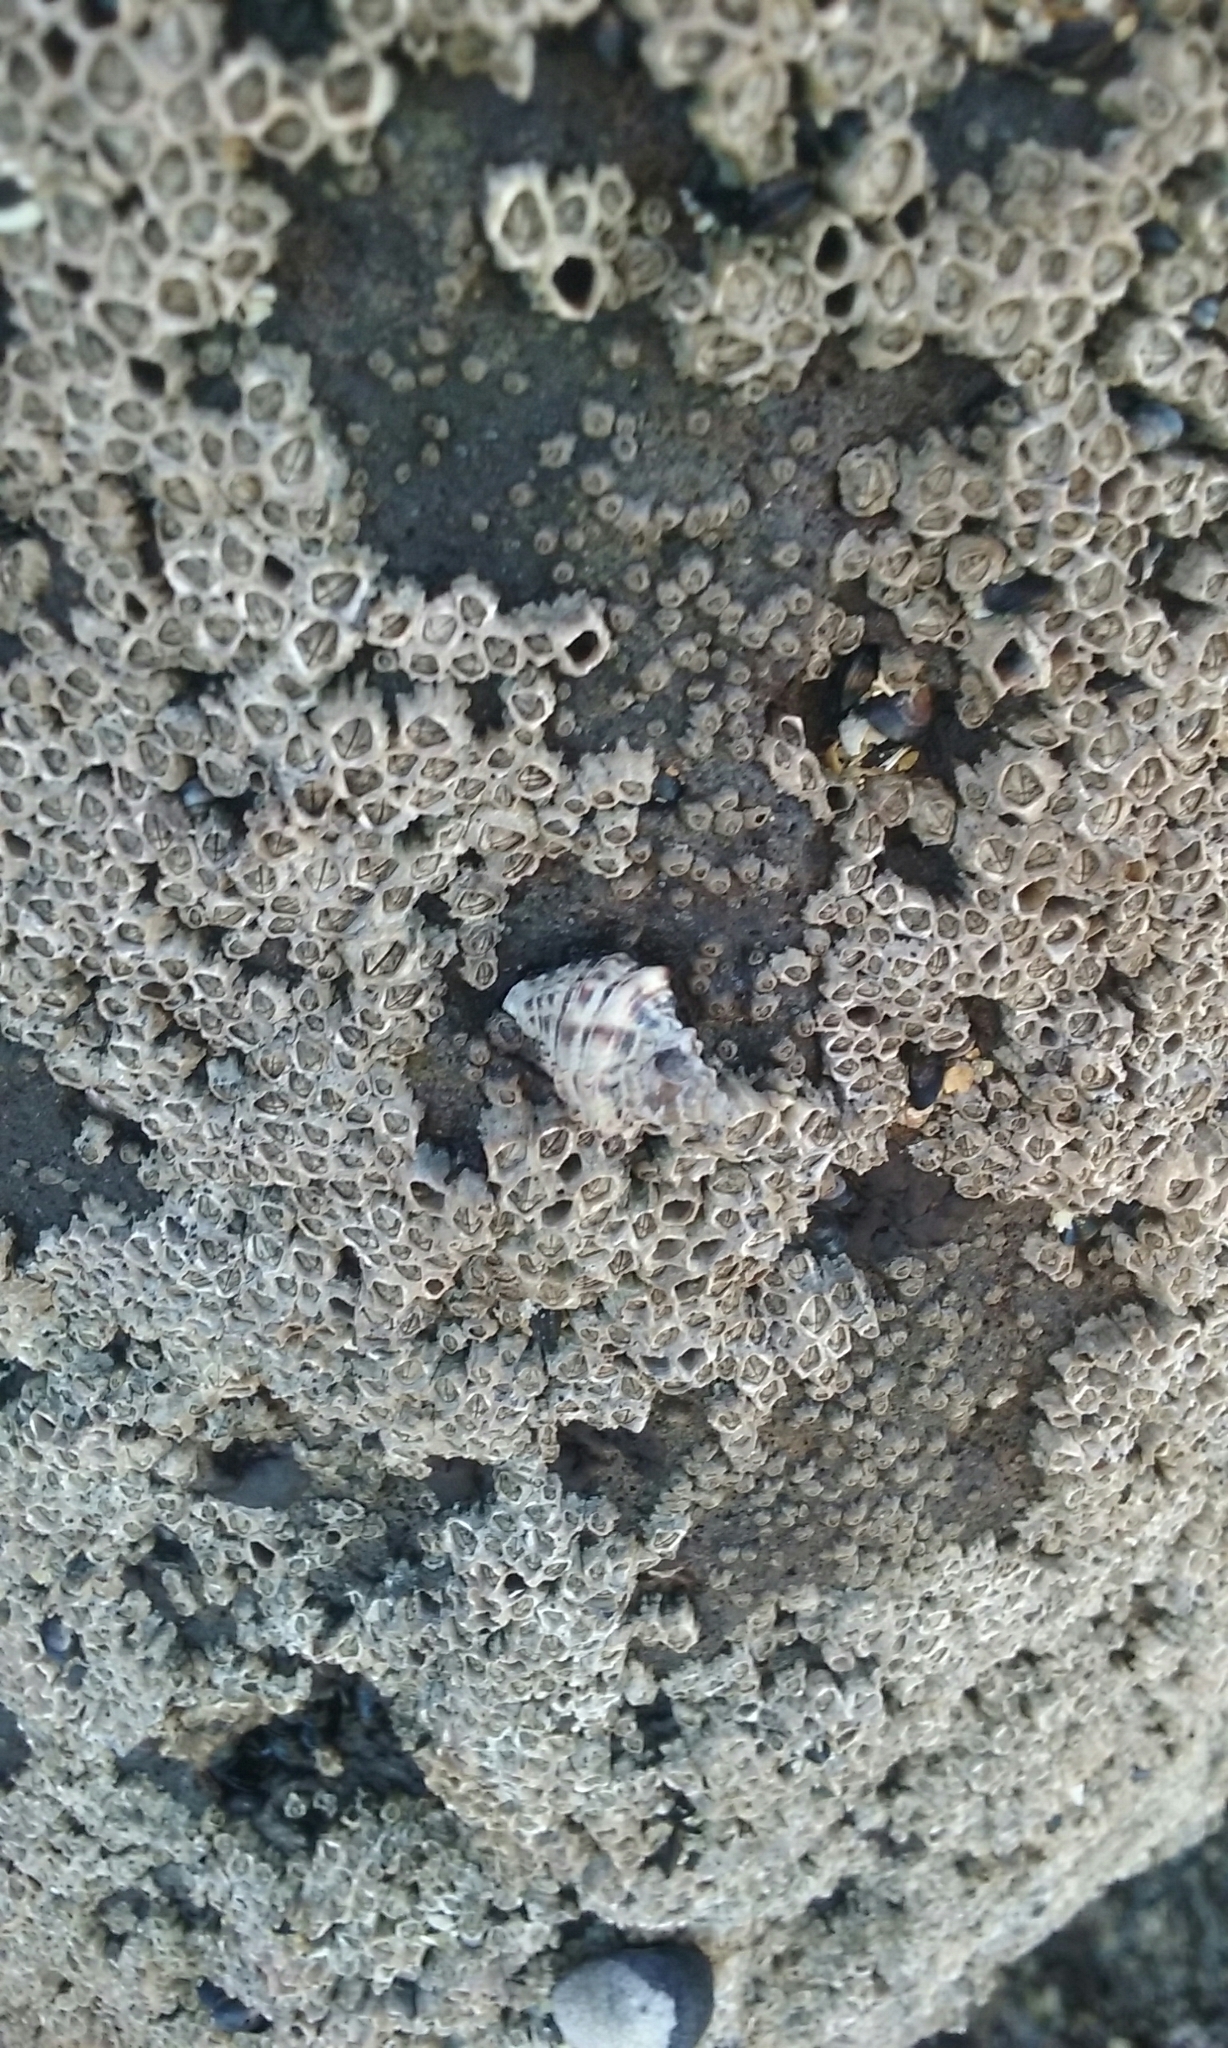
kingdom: Animalia
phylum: Mollusca
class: Gastropoda
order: Neogastropoda
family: Muricidae
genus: Haustrum
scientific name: Haustrum scobina
